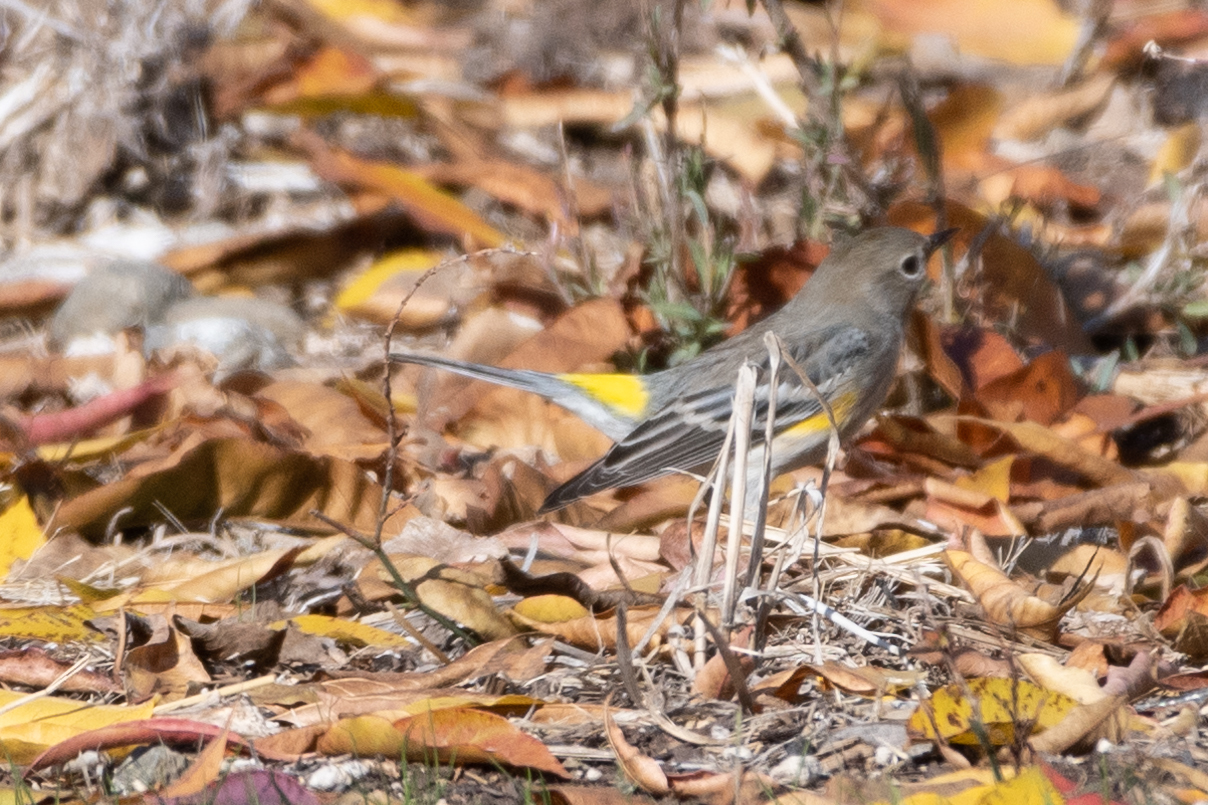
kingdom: Animalia
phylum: Chordata
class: Aves
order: Passeriformes
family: Parulidae
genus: Setophaga
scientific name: Setophaga coronata
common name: Myrtle warbler
